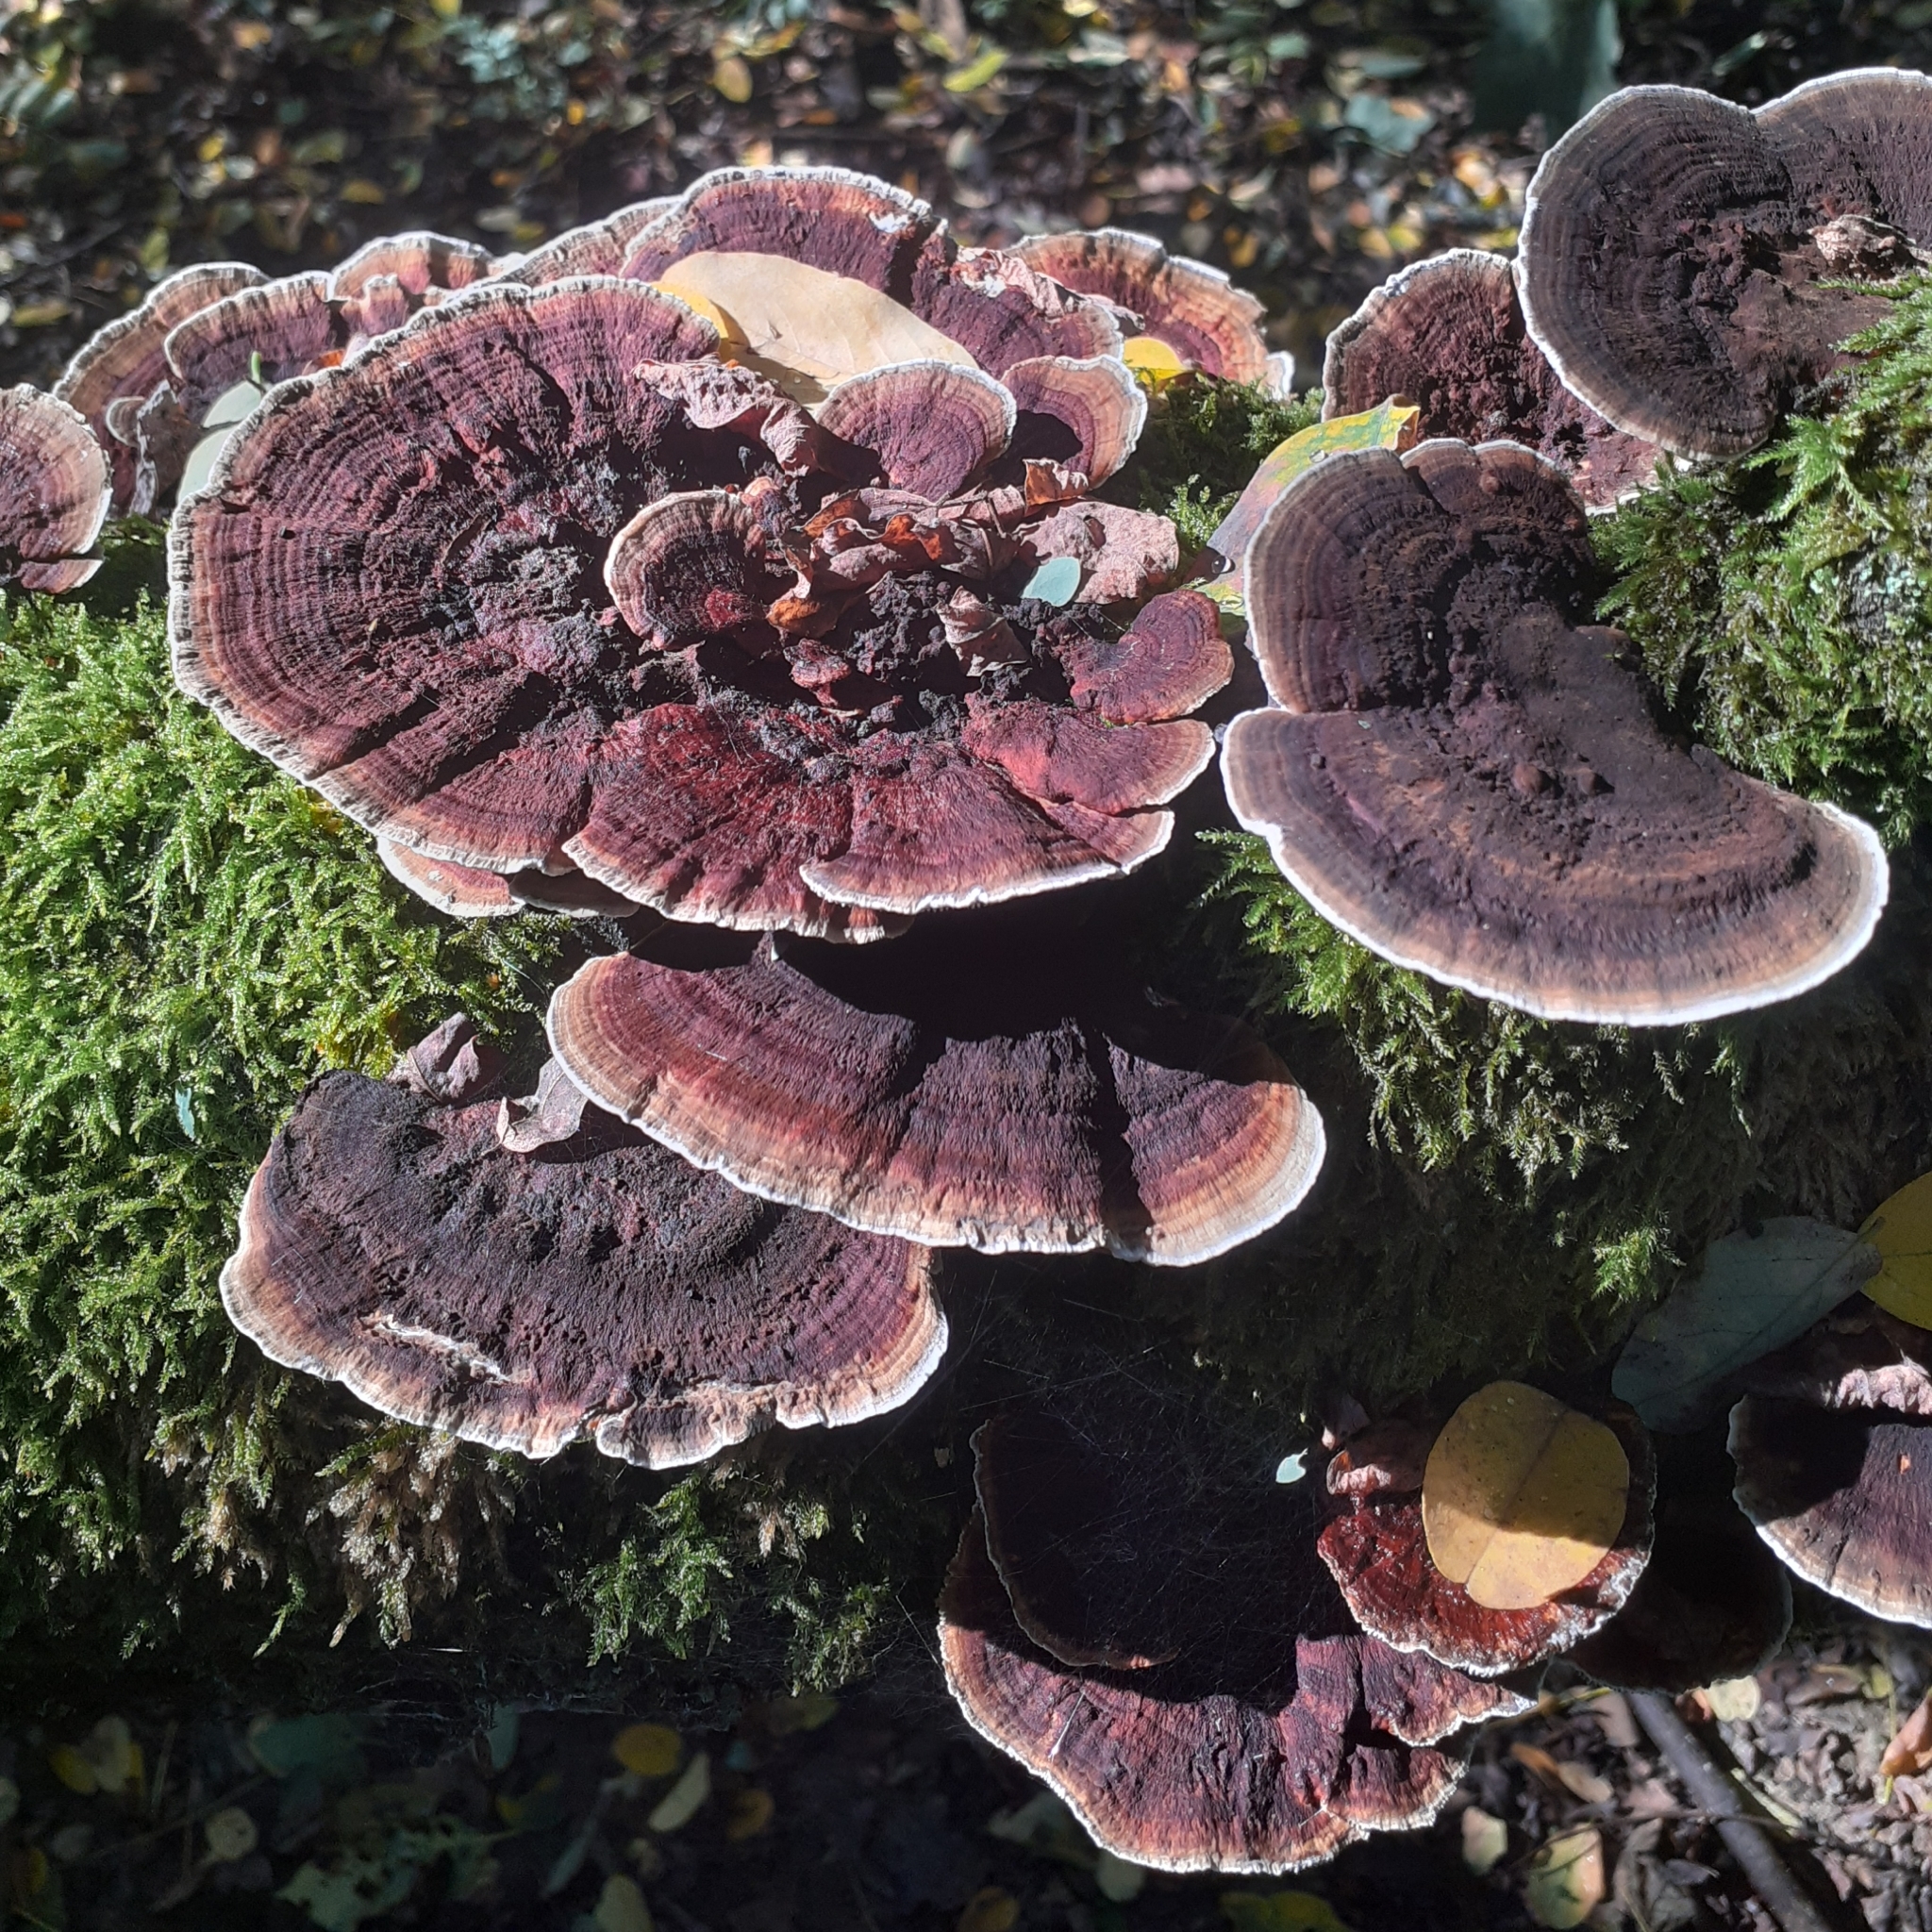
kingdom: Fungi
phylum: Basidiomycota
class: Agaricomycetes
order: Polyporales
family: Polyporaceae
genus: Daedaleopsis
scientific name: Daedaleopsis tricolor
